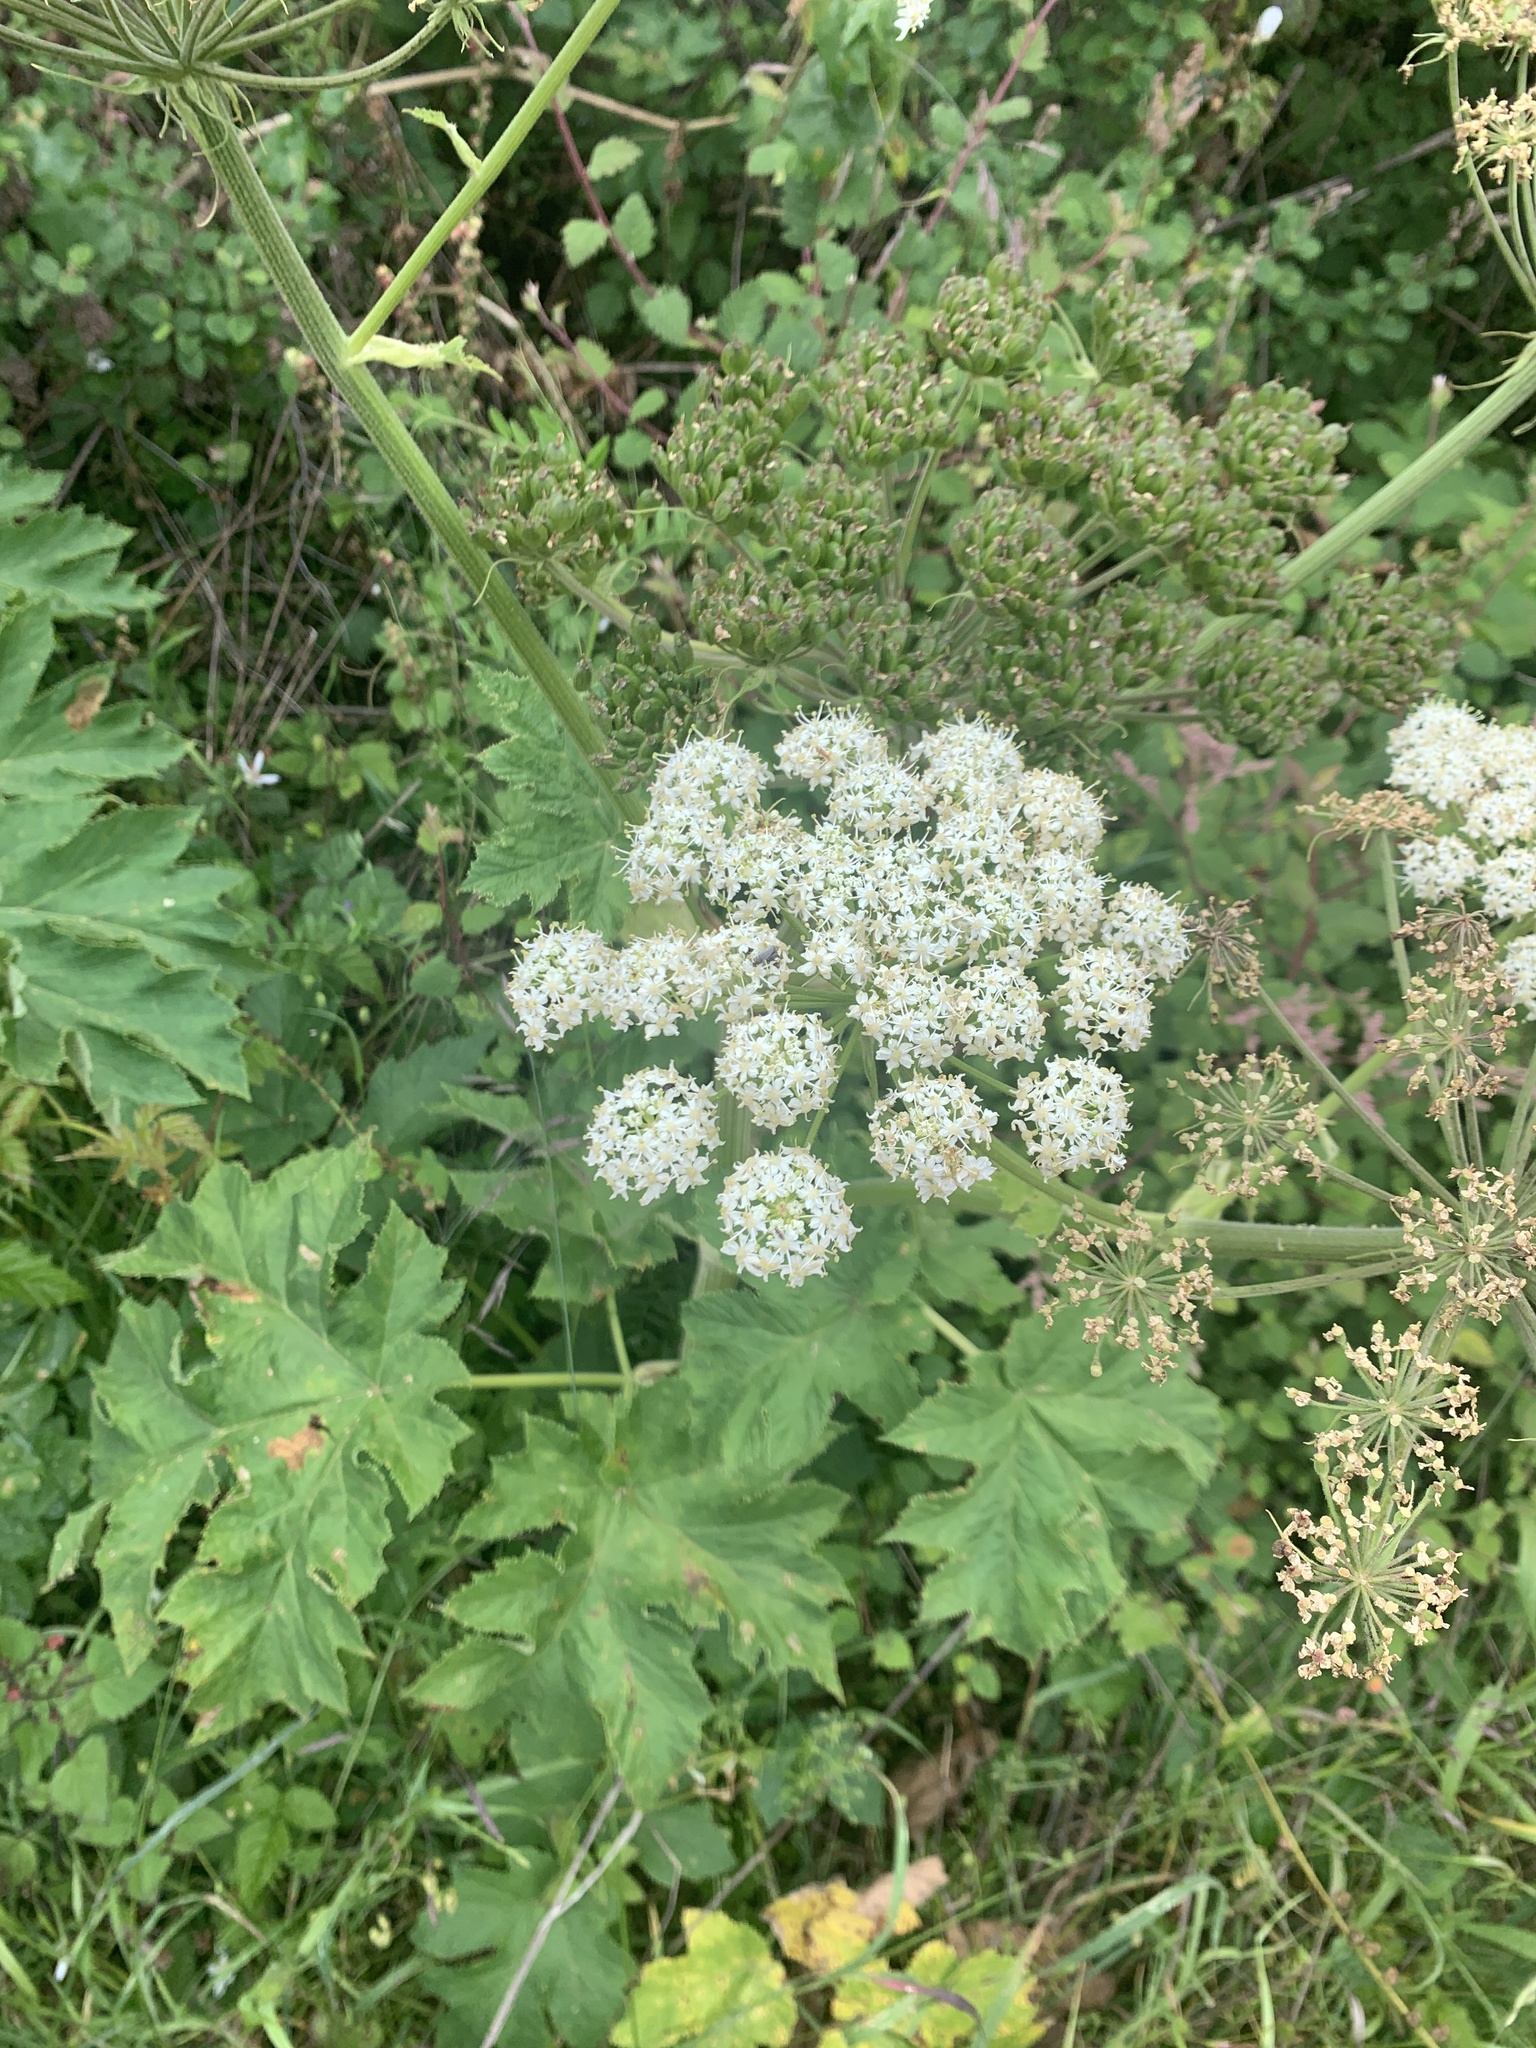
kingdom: Plantae
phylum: Tracheophyta
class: Magnoliopsida
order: Apiales
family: Apiaceae
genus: Heracleum
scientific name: Heracleum maximum
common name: American cow parsnip
